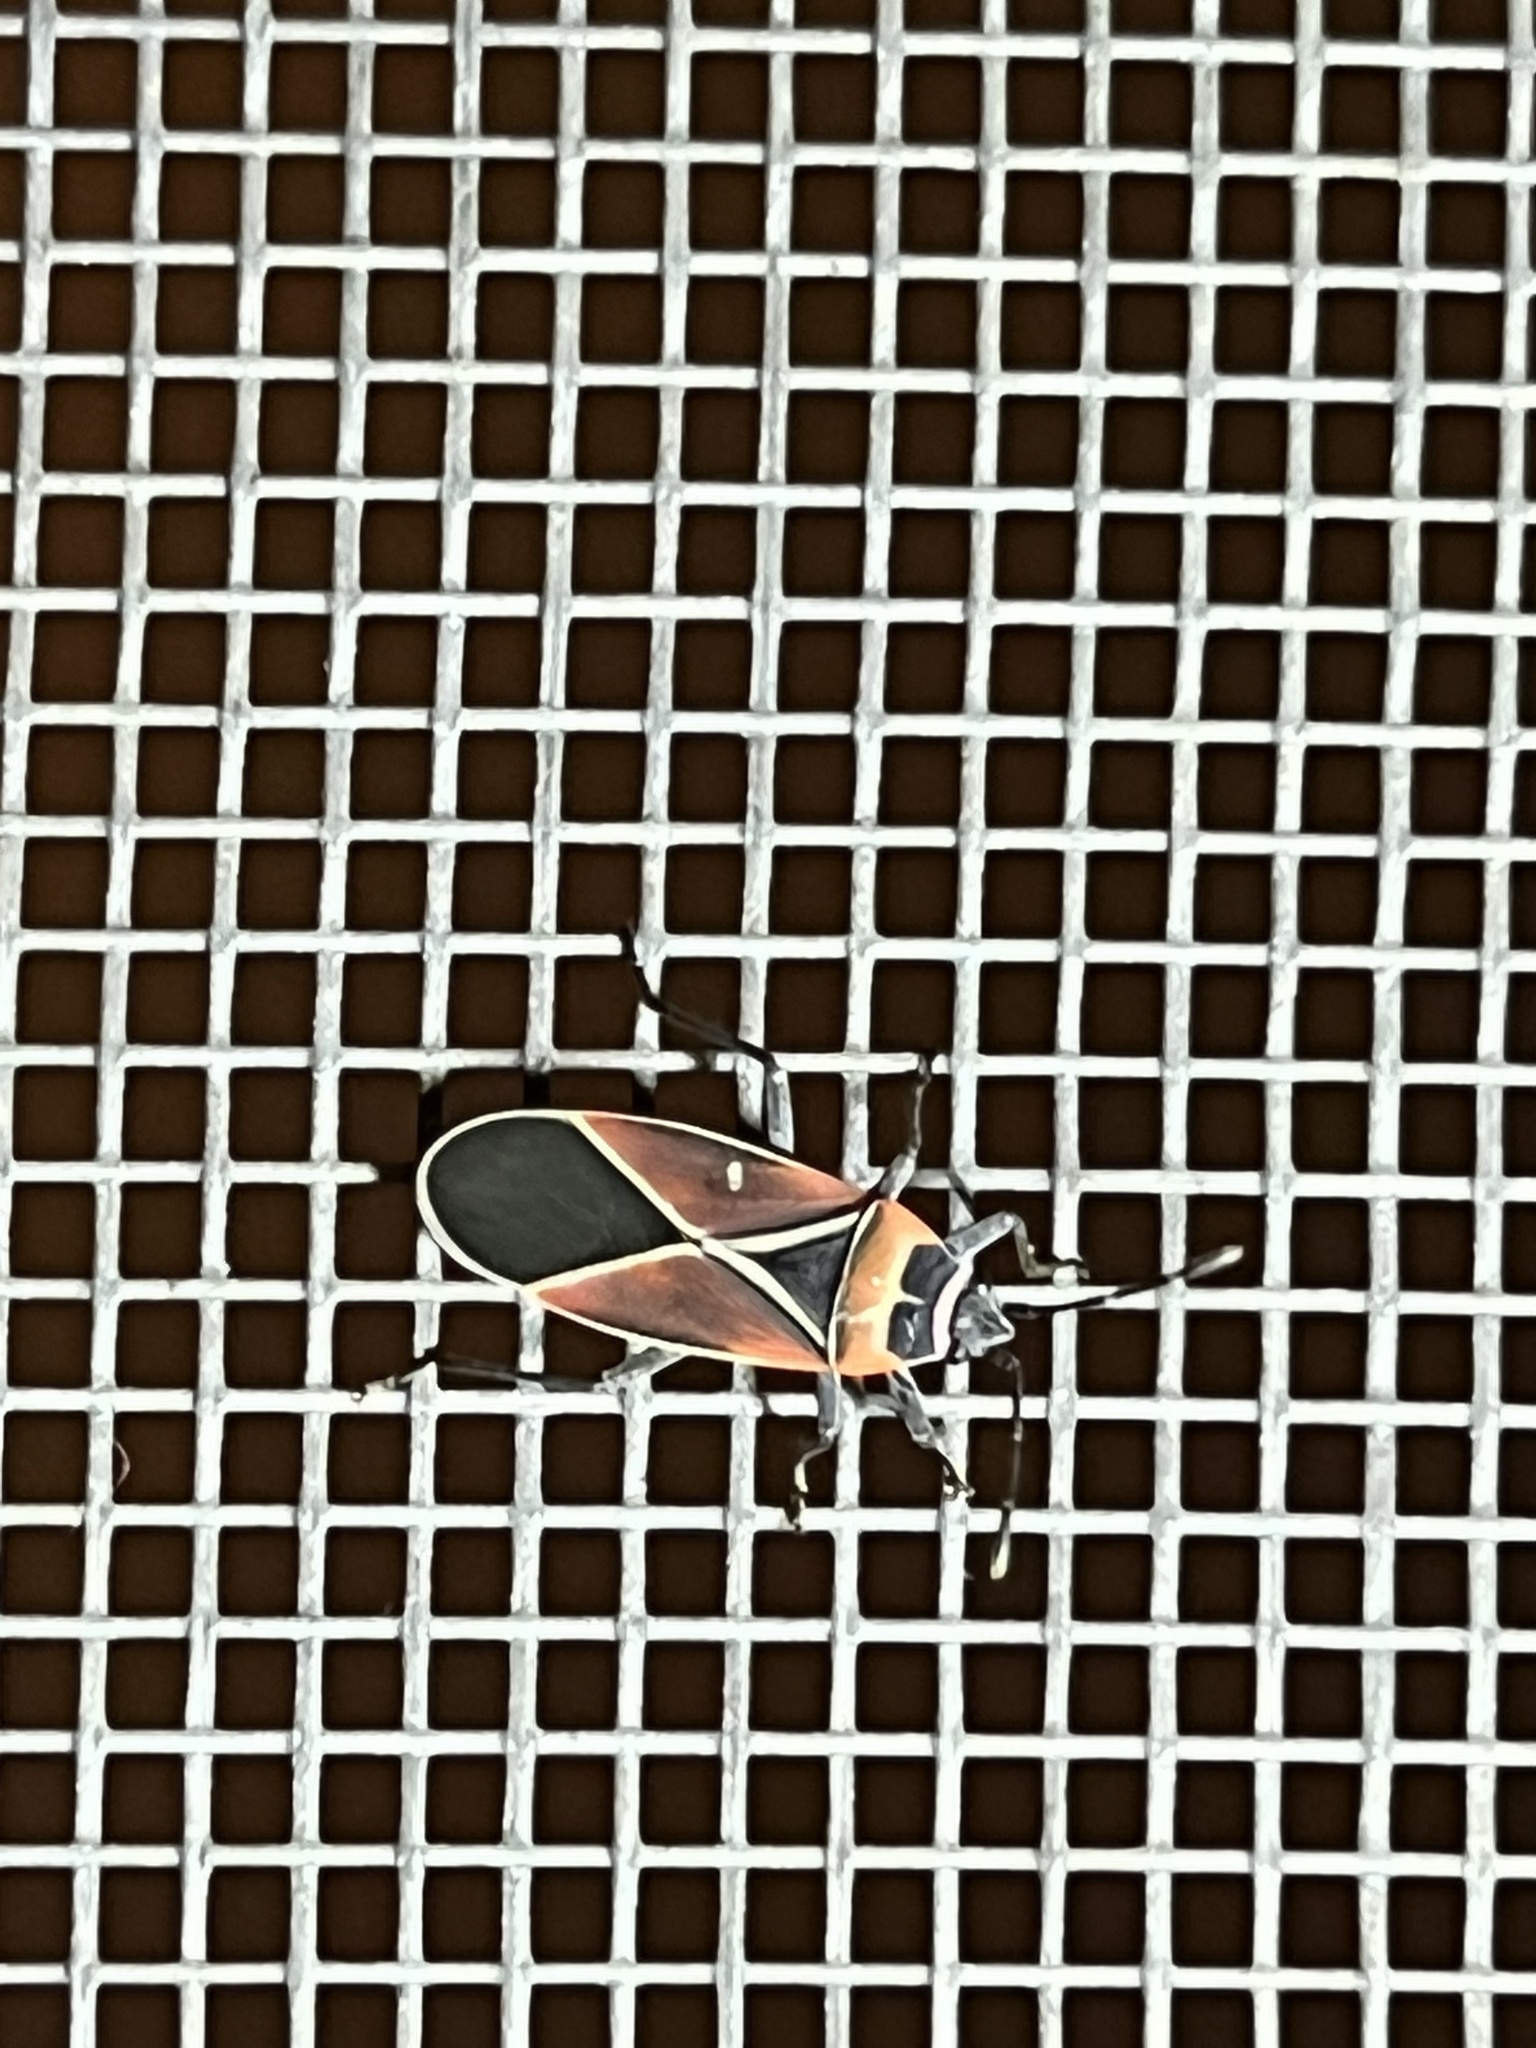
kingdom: Animalia
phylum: Arthropoda
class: Insecta
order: Hemiptera
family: Lygaeidae
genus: Neacoryphus
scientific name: Neacoryphus bicrucis
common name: Lygaeid bug
